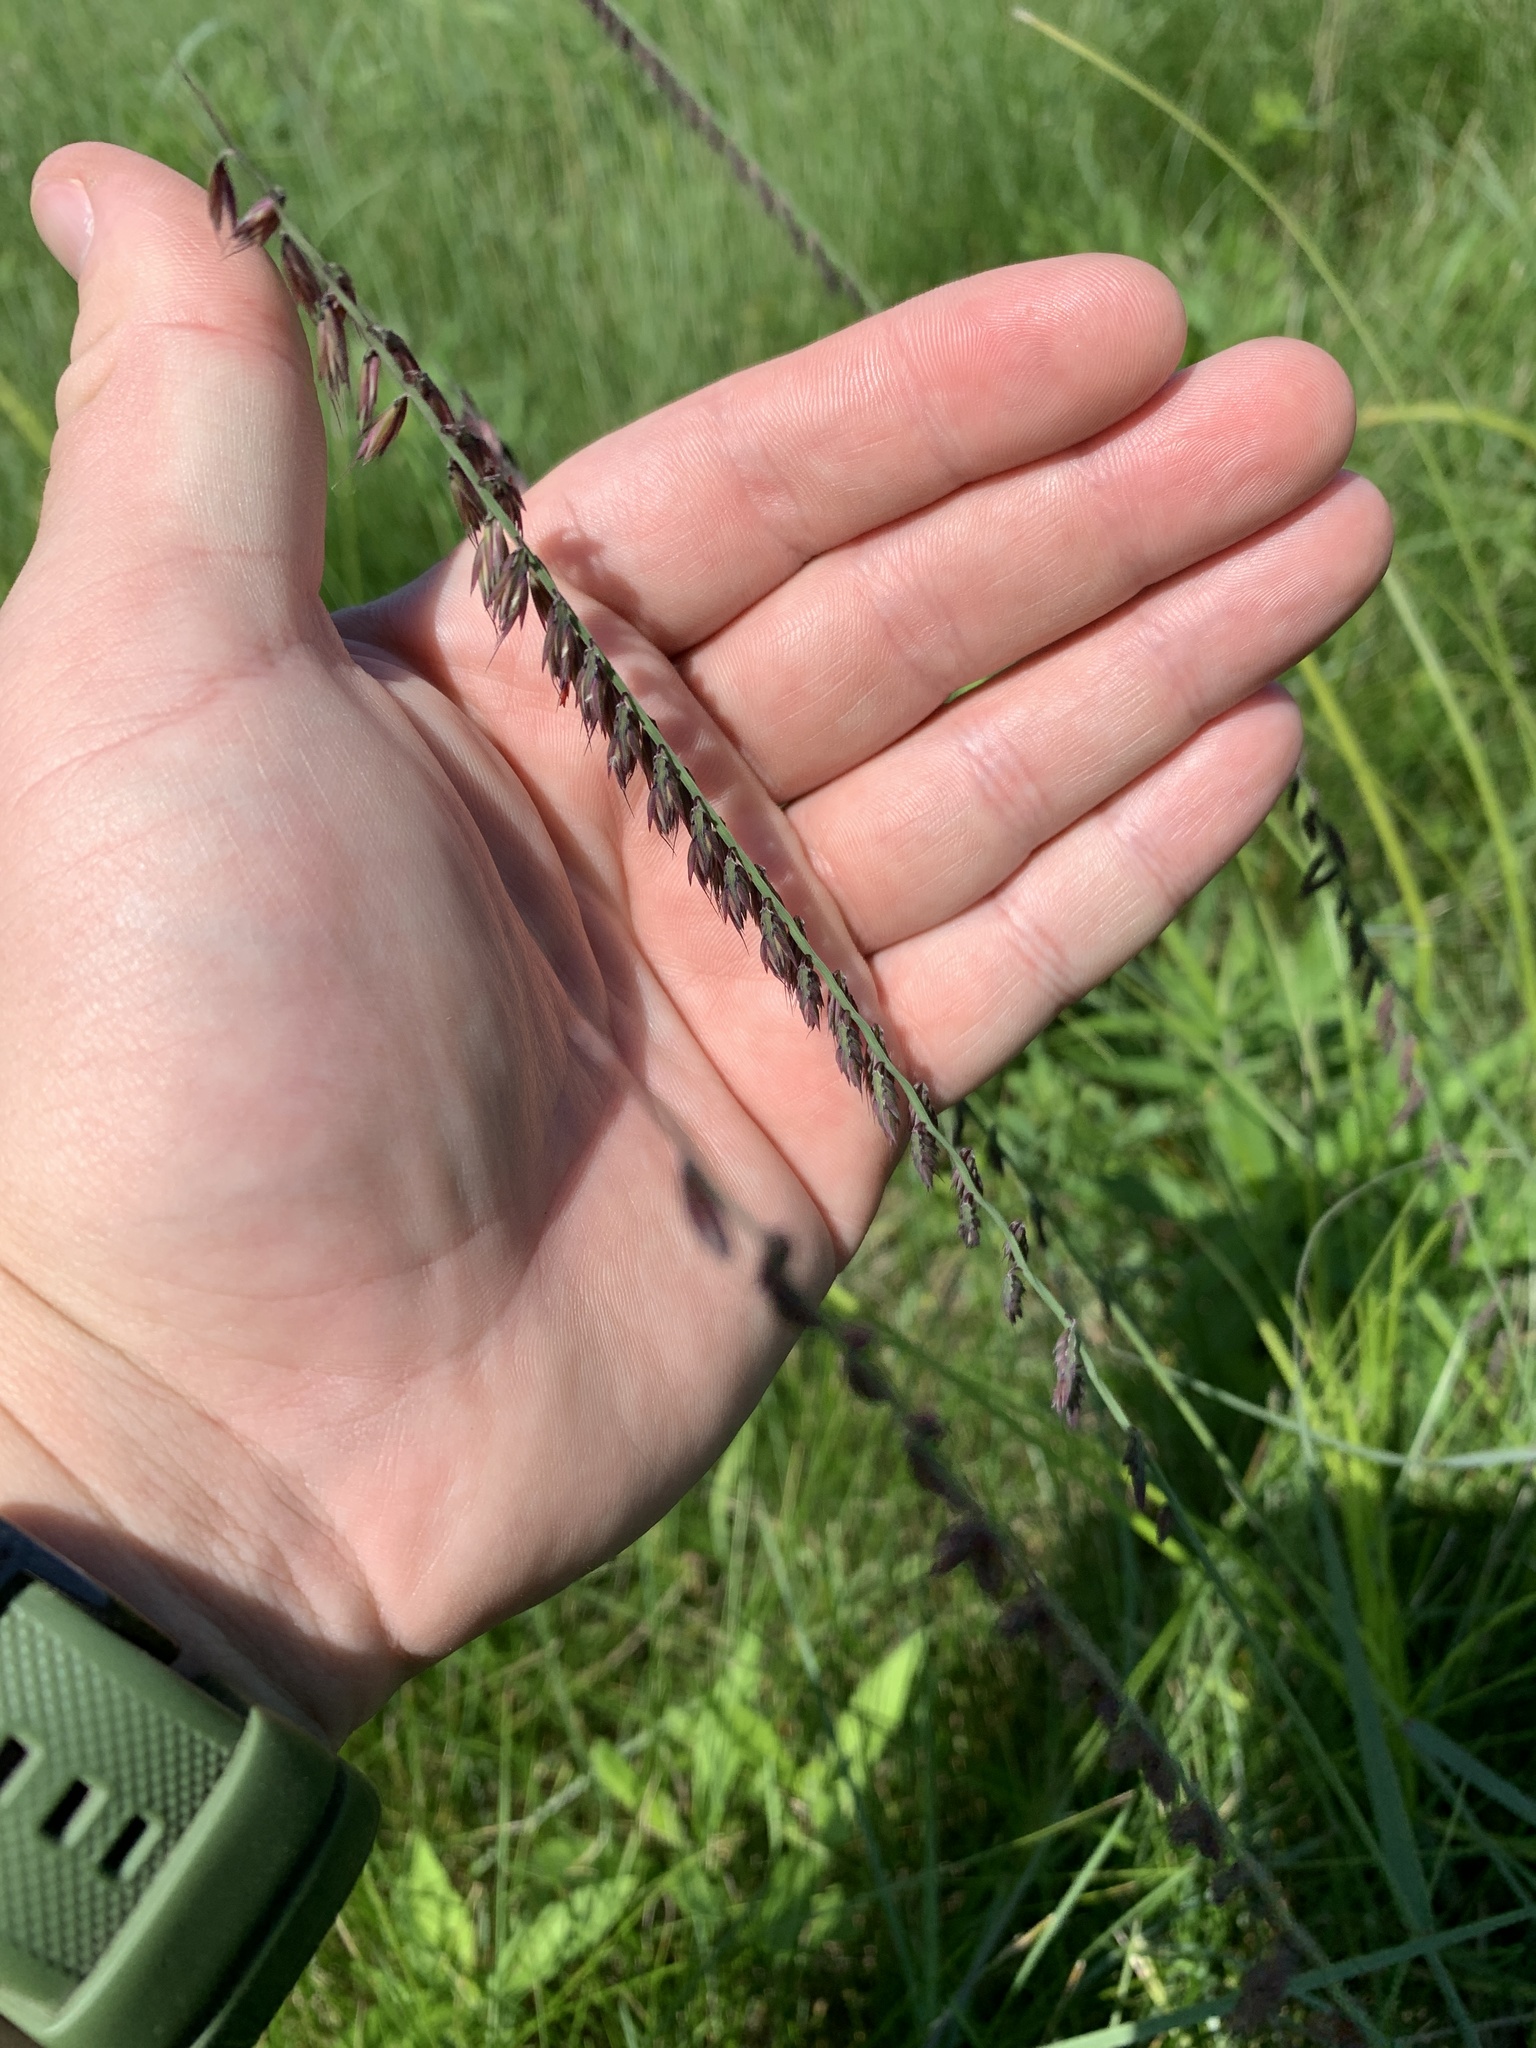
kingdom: Plantae
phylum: Tracheophyta
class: Liliopsida
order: Poales
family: Poaceae
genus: Bouteloua
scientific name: Bouteloua curtipendula
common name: Side-oats grama
